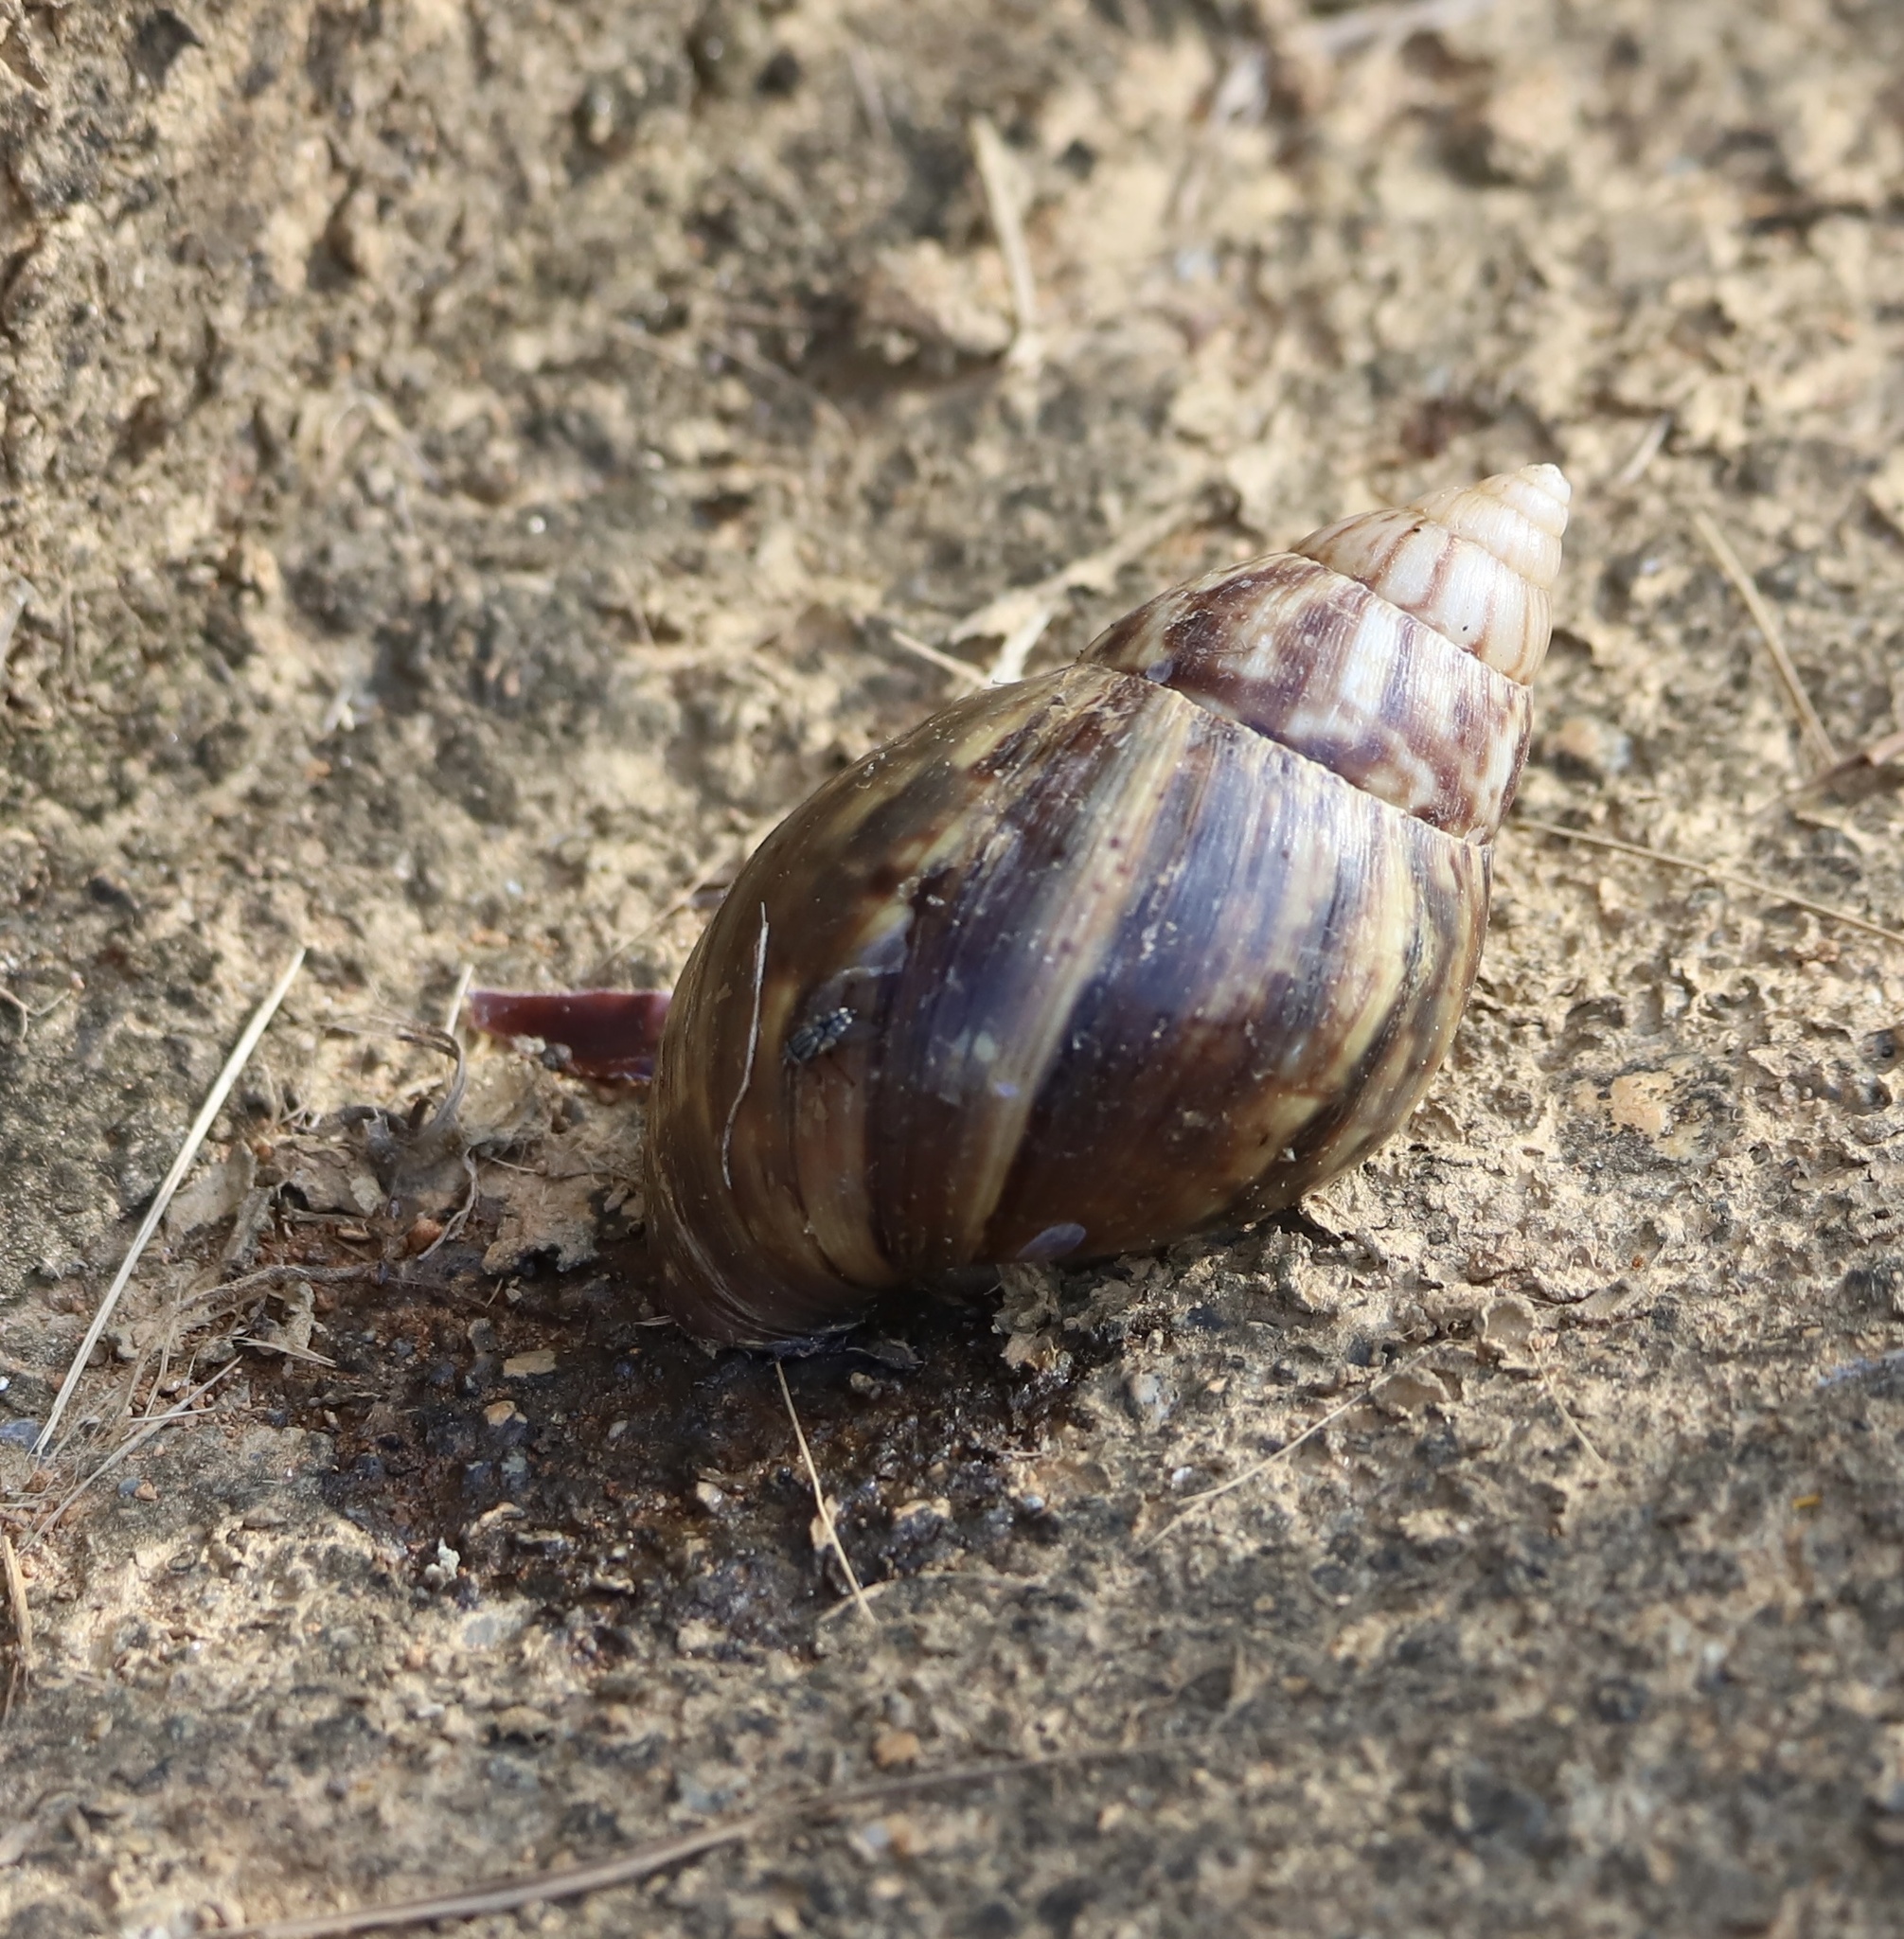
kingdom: Animalia
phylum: Mollusca
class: Gastropoda
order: Stylommatophora
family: Achatinidae
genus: Lissachatina
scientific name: Lissachatina fulica
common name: Giant african snail
